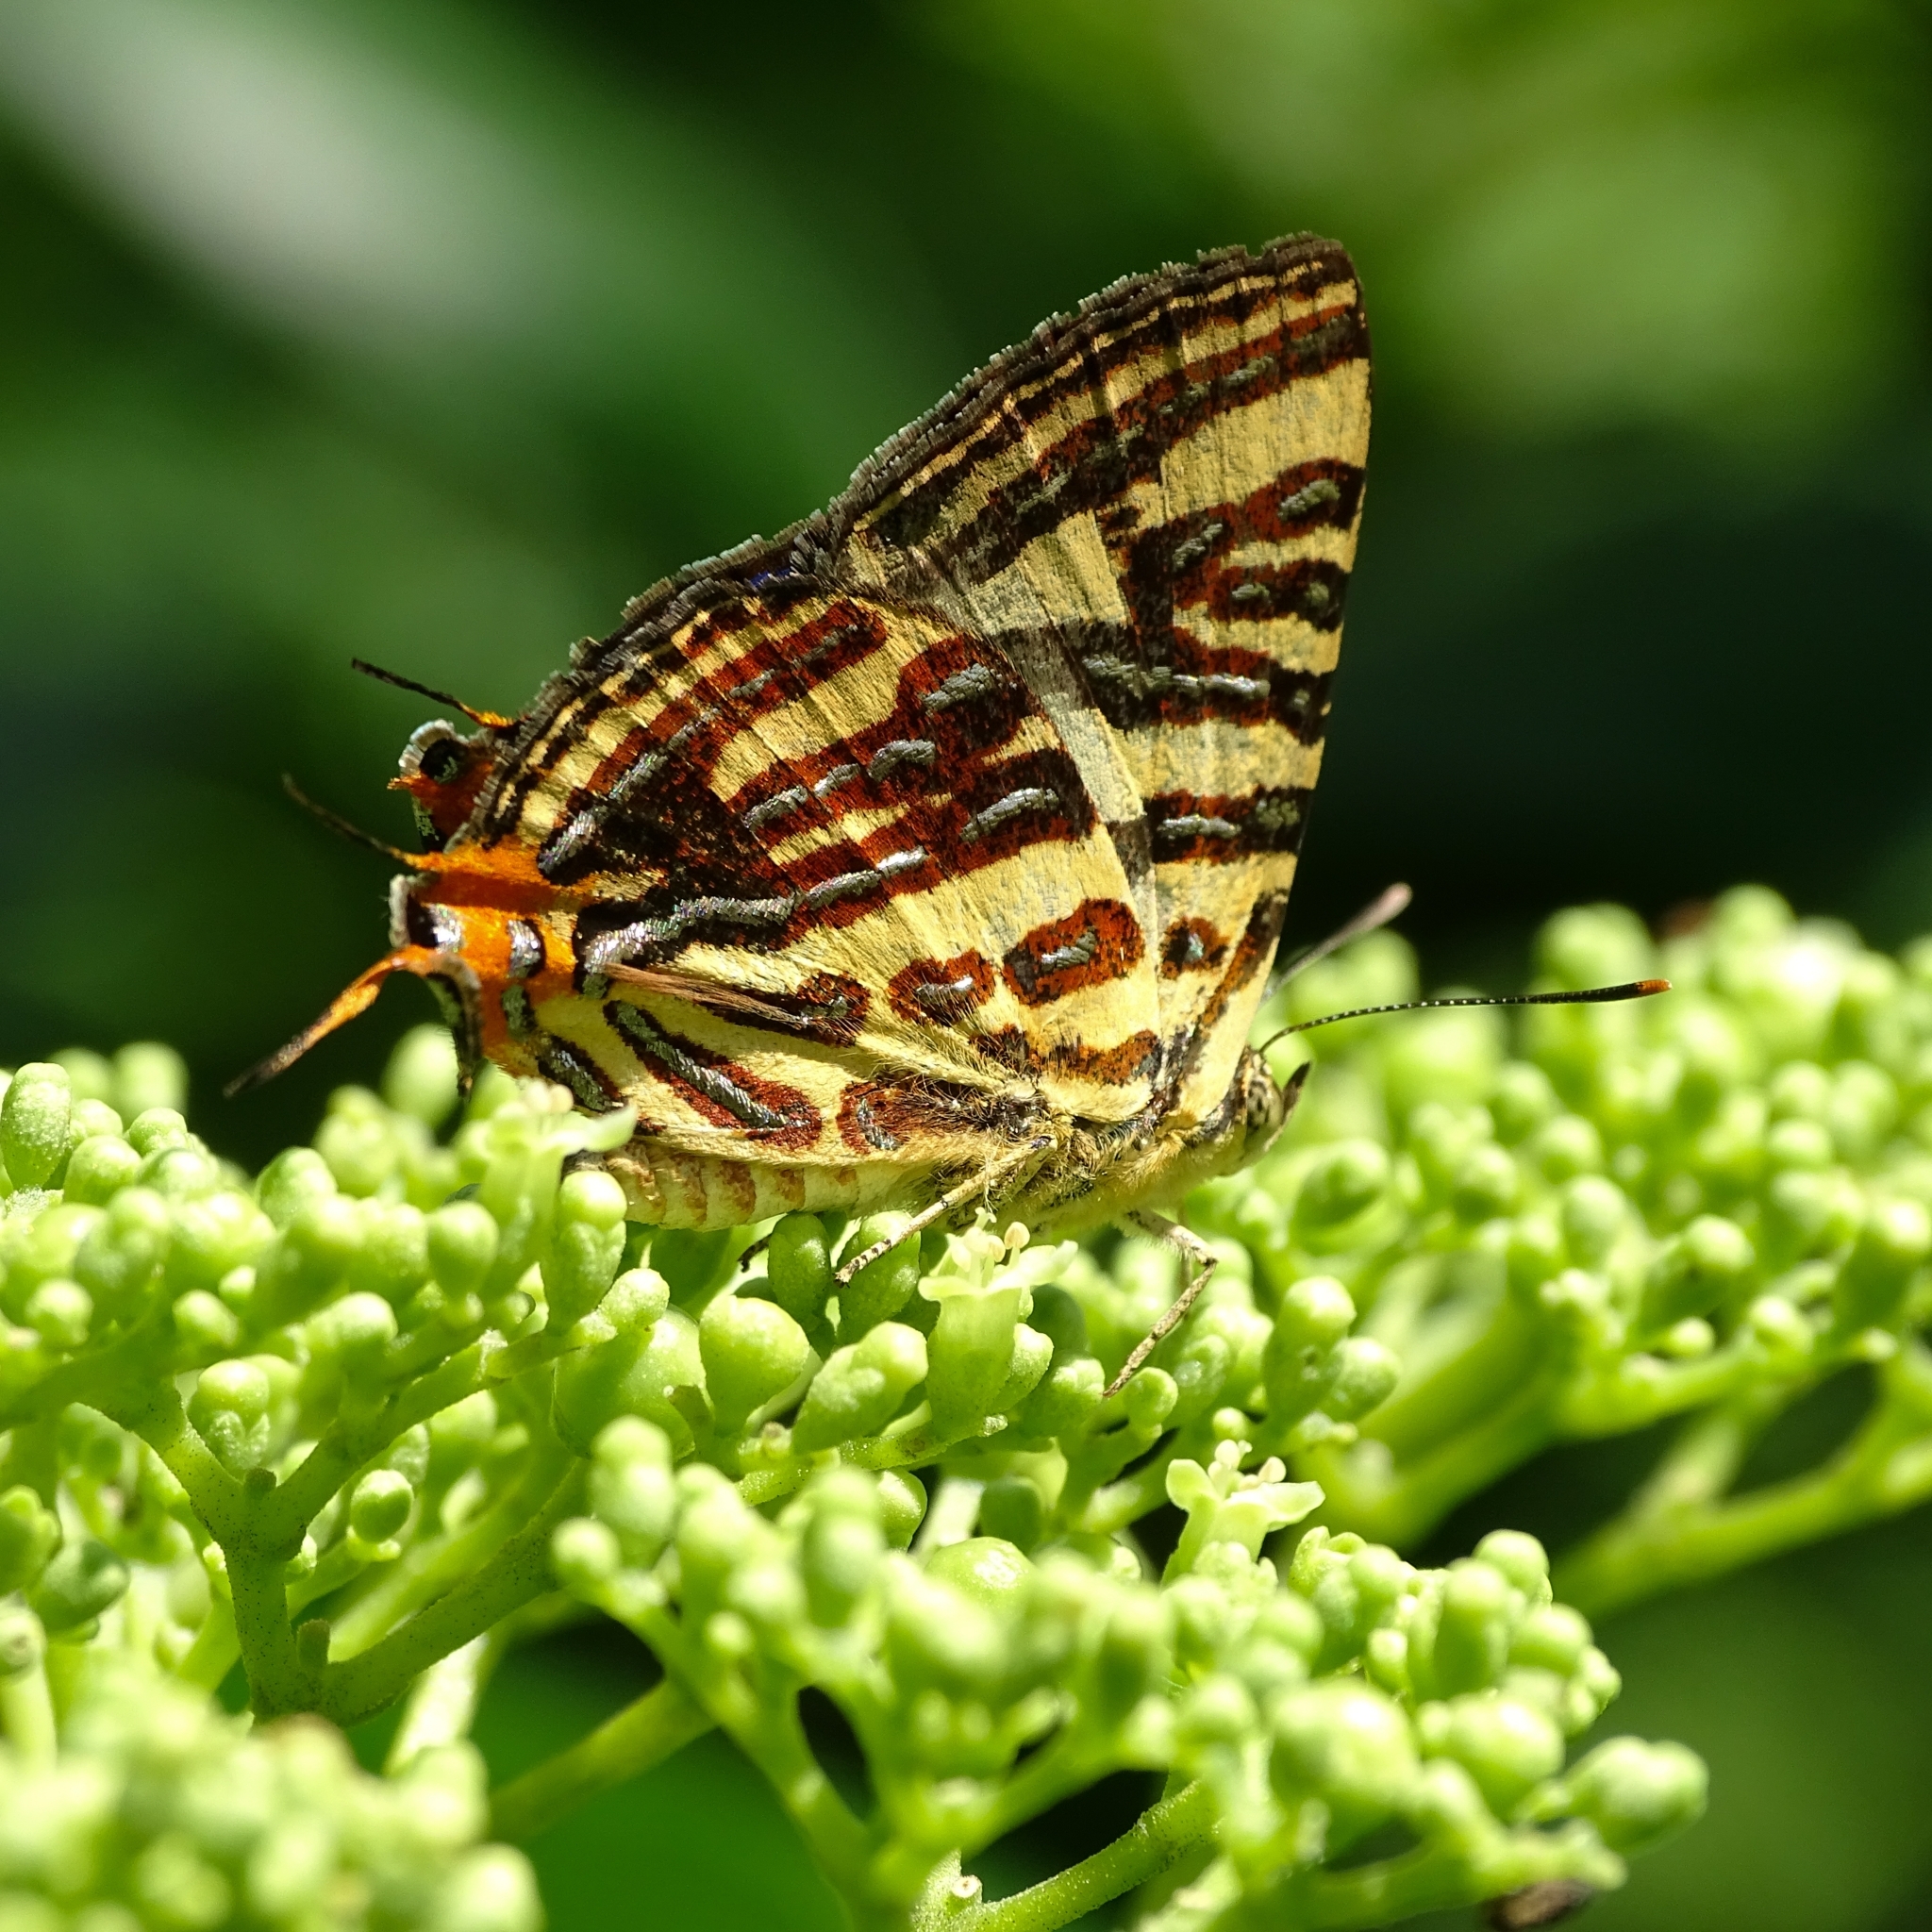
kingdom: Animalia
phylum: Arthropoda
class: Insecta
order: Lepidoptera
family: Lycaenidae
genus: Cigaritis
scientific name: Cigaritis lohita
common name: Long-banded silverline
